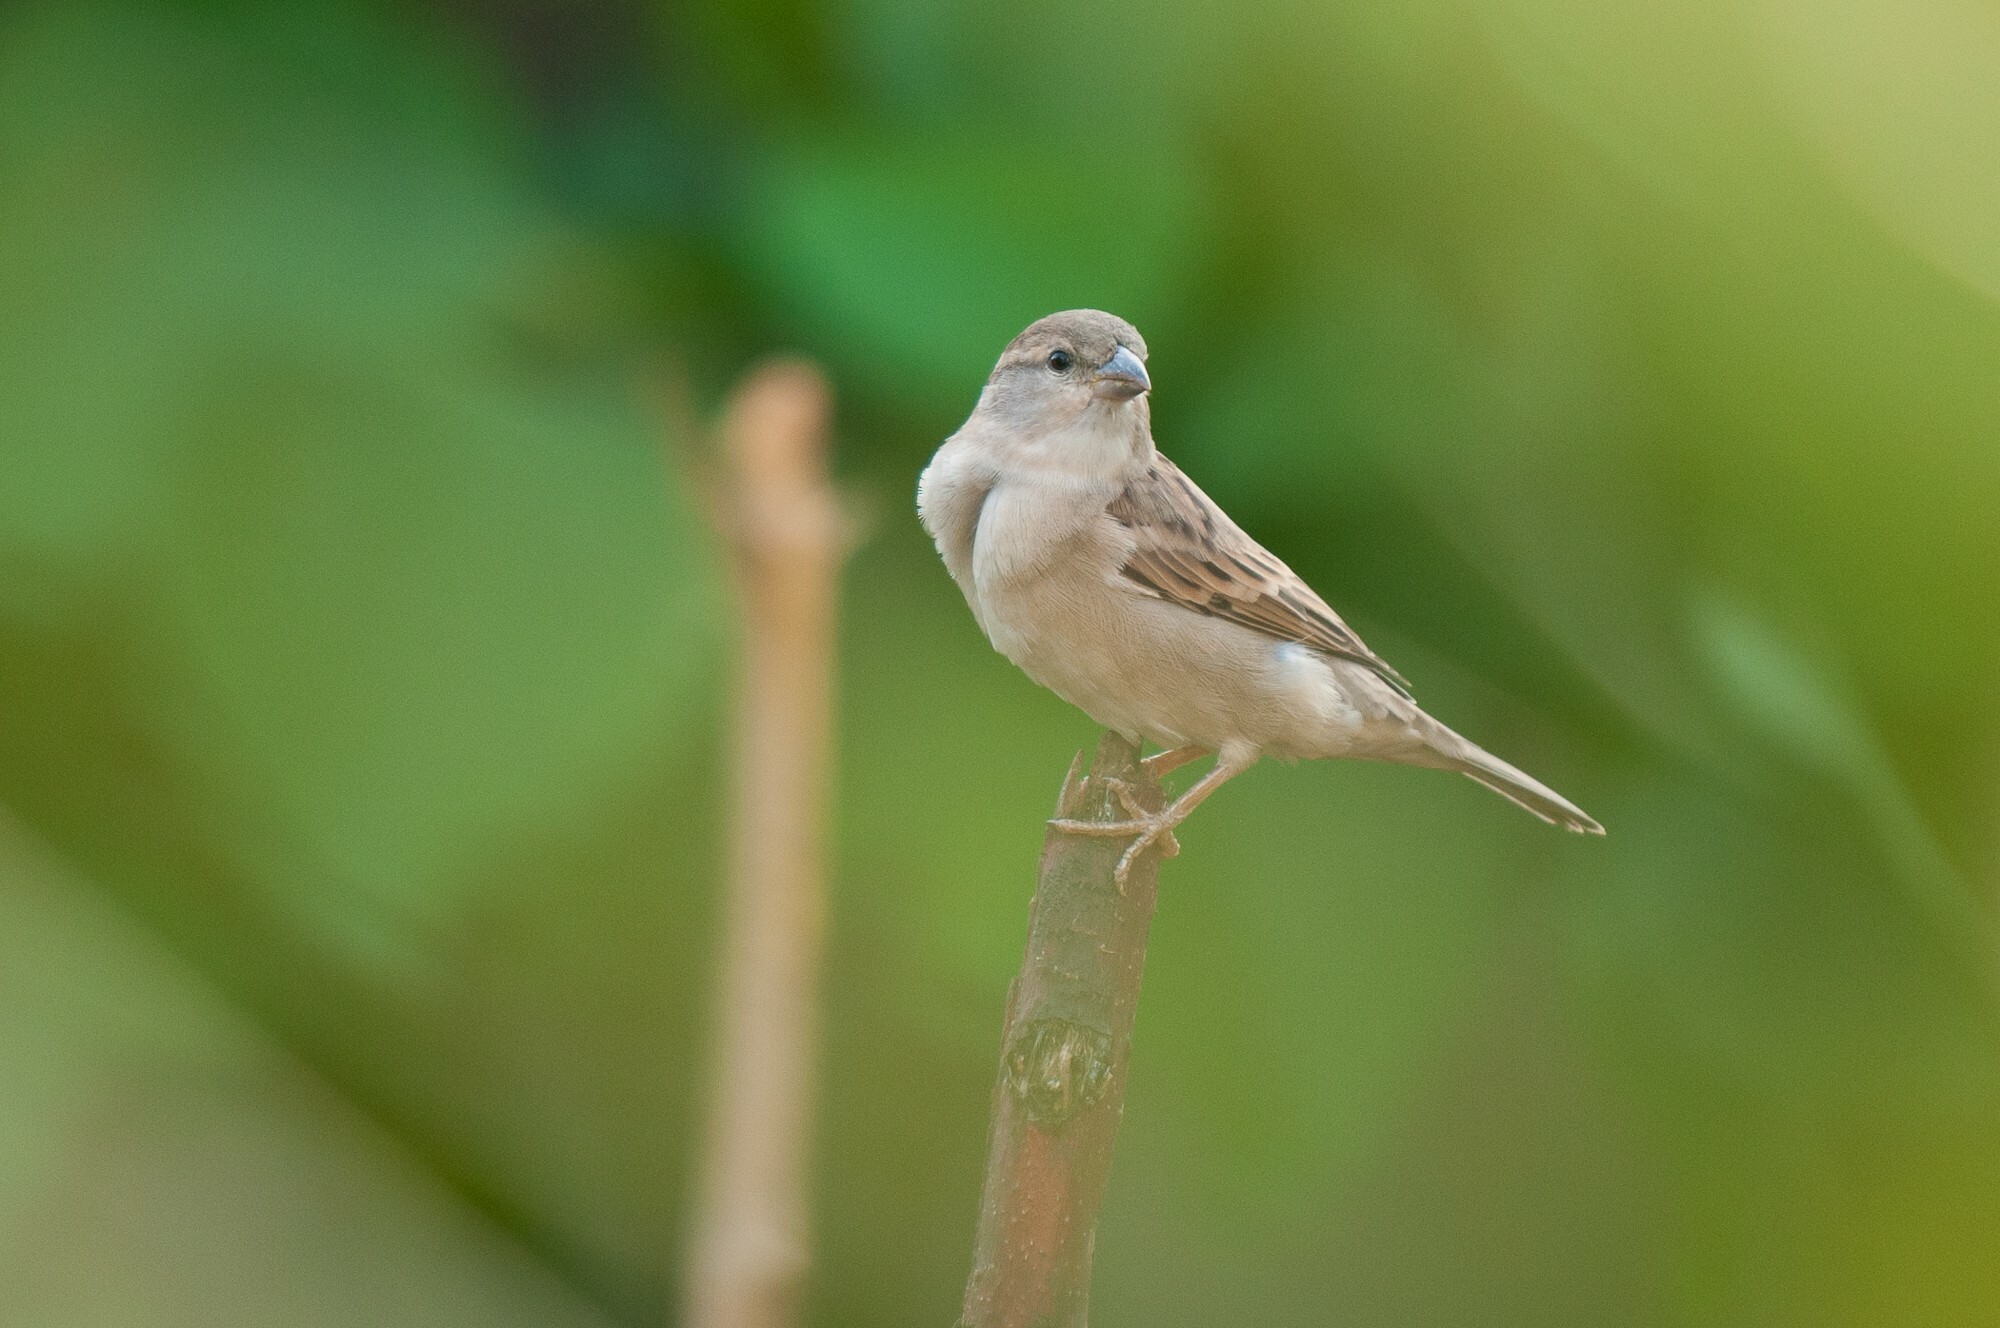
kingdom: Animalia
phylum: Chordata
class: Aves
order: Passeriformes
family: Passeridae
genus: Passer
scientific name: Passer domesticus
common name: House sparrow
